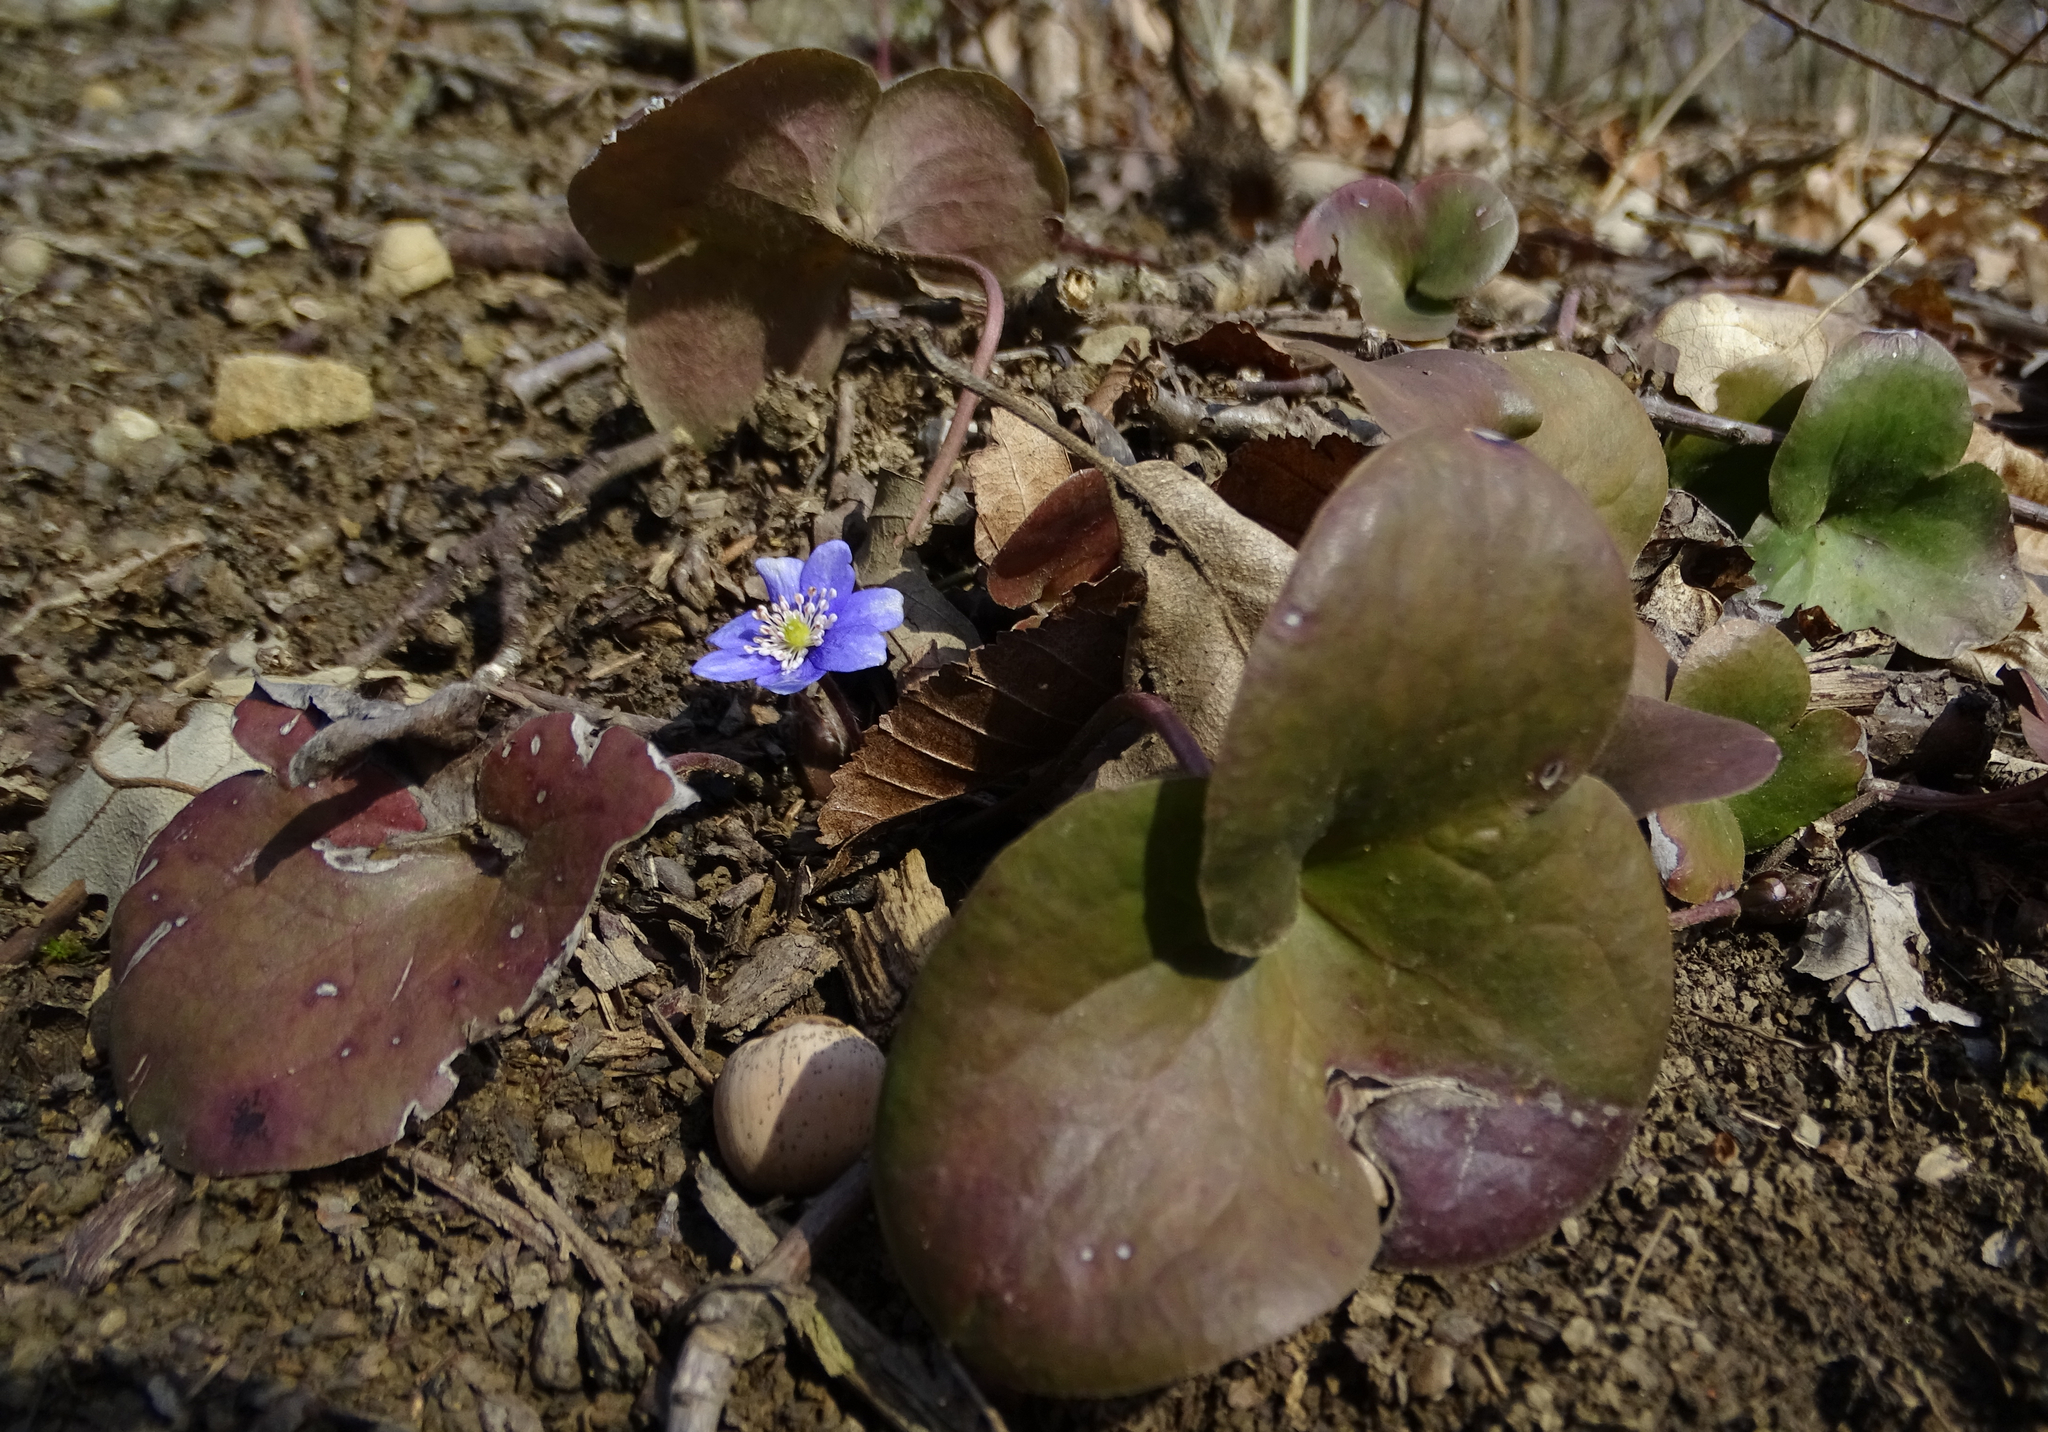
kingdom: Plantae
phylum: Tracheophyta
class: Magnoliopsida
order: Ranunculales
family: Ranunculaceae
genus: Hepatica
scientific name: Hepatica nobilis
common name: Liverleaf
